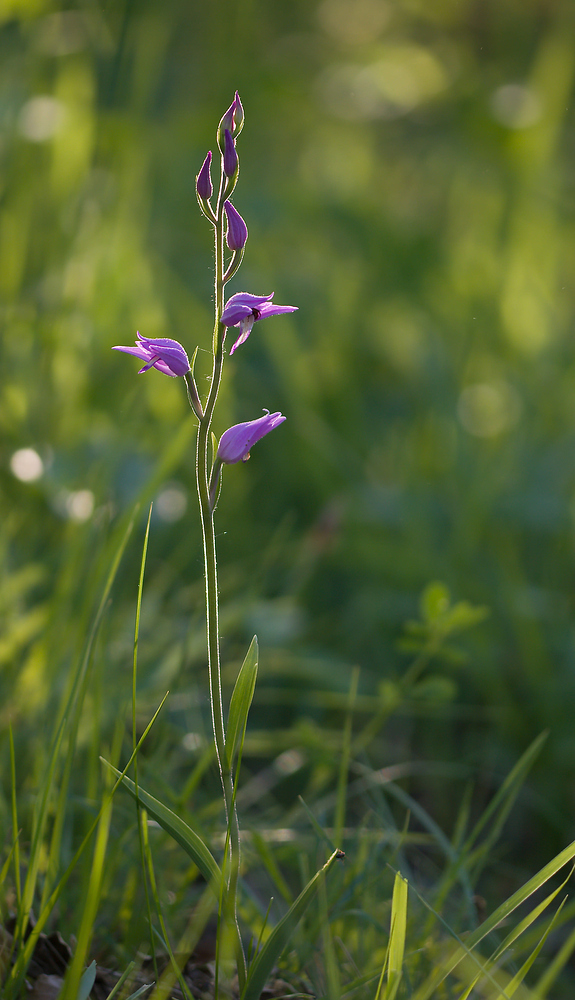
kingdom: Plantae
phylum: Tracheophyta
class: Liliopsida
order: Asparagales
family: Orchidaceae
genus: Cephalanthera
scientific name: Cephalanthera rubra
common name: Red helleborine
